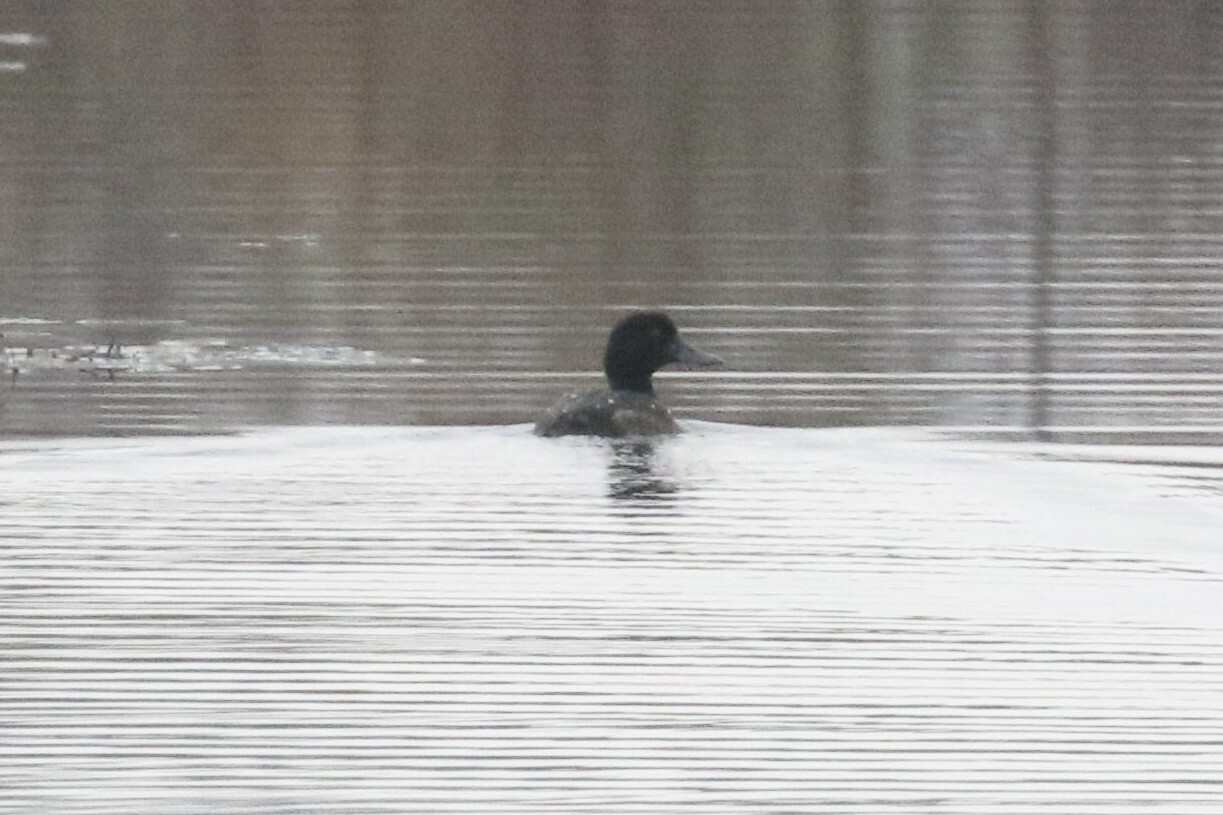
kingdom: Animalia
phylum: Chordata
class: Aves
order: Anseriformes
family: Anatidae
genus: Aythya
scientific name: Aythya fuligula
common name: Tufted duck
